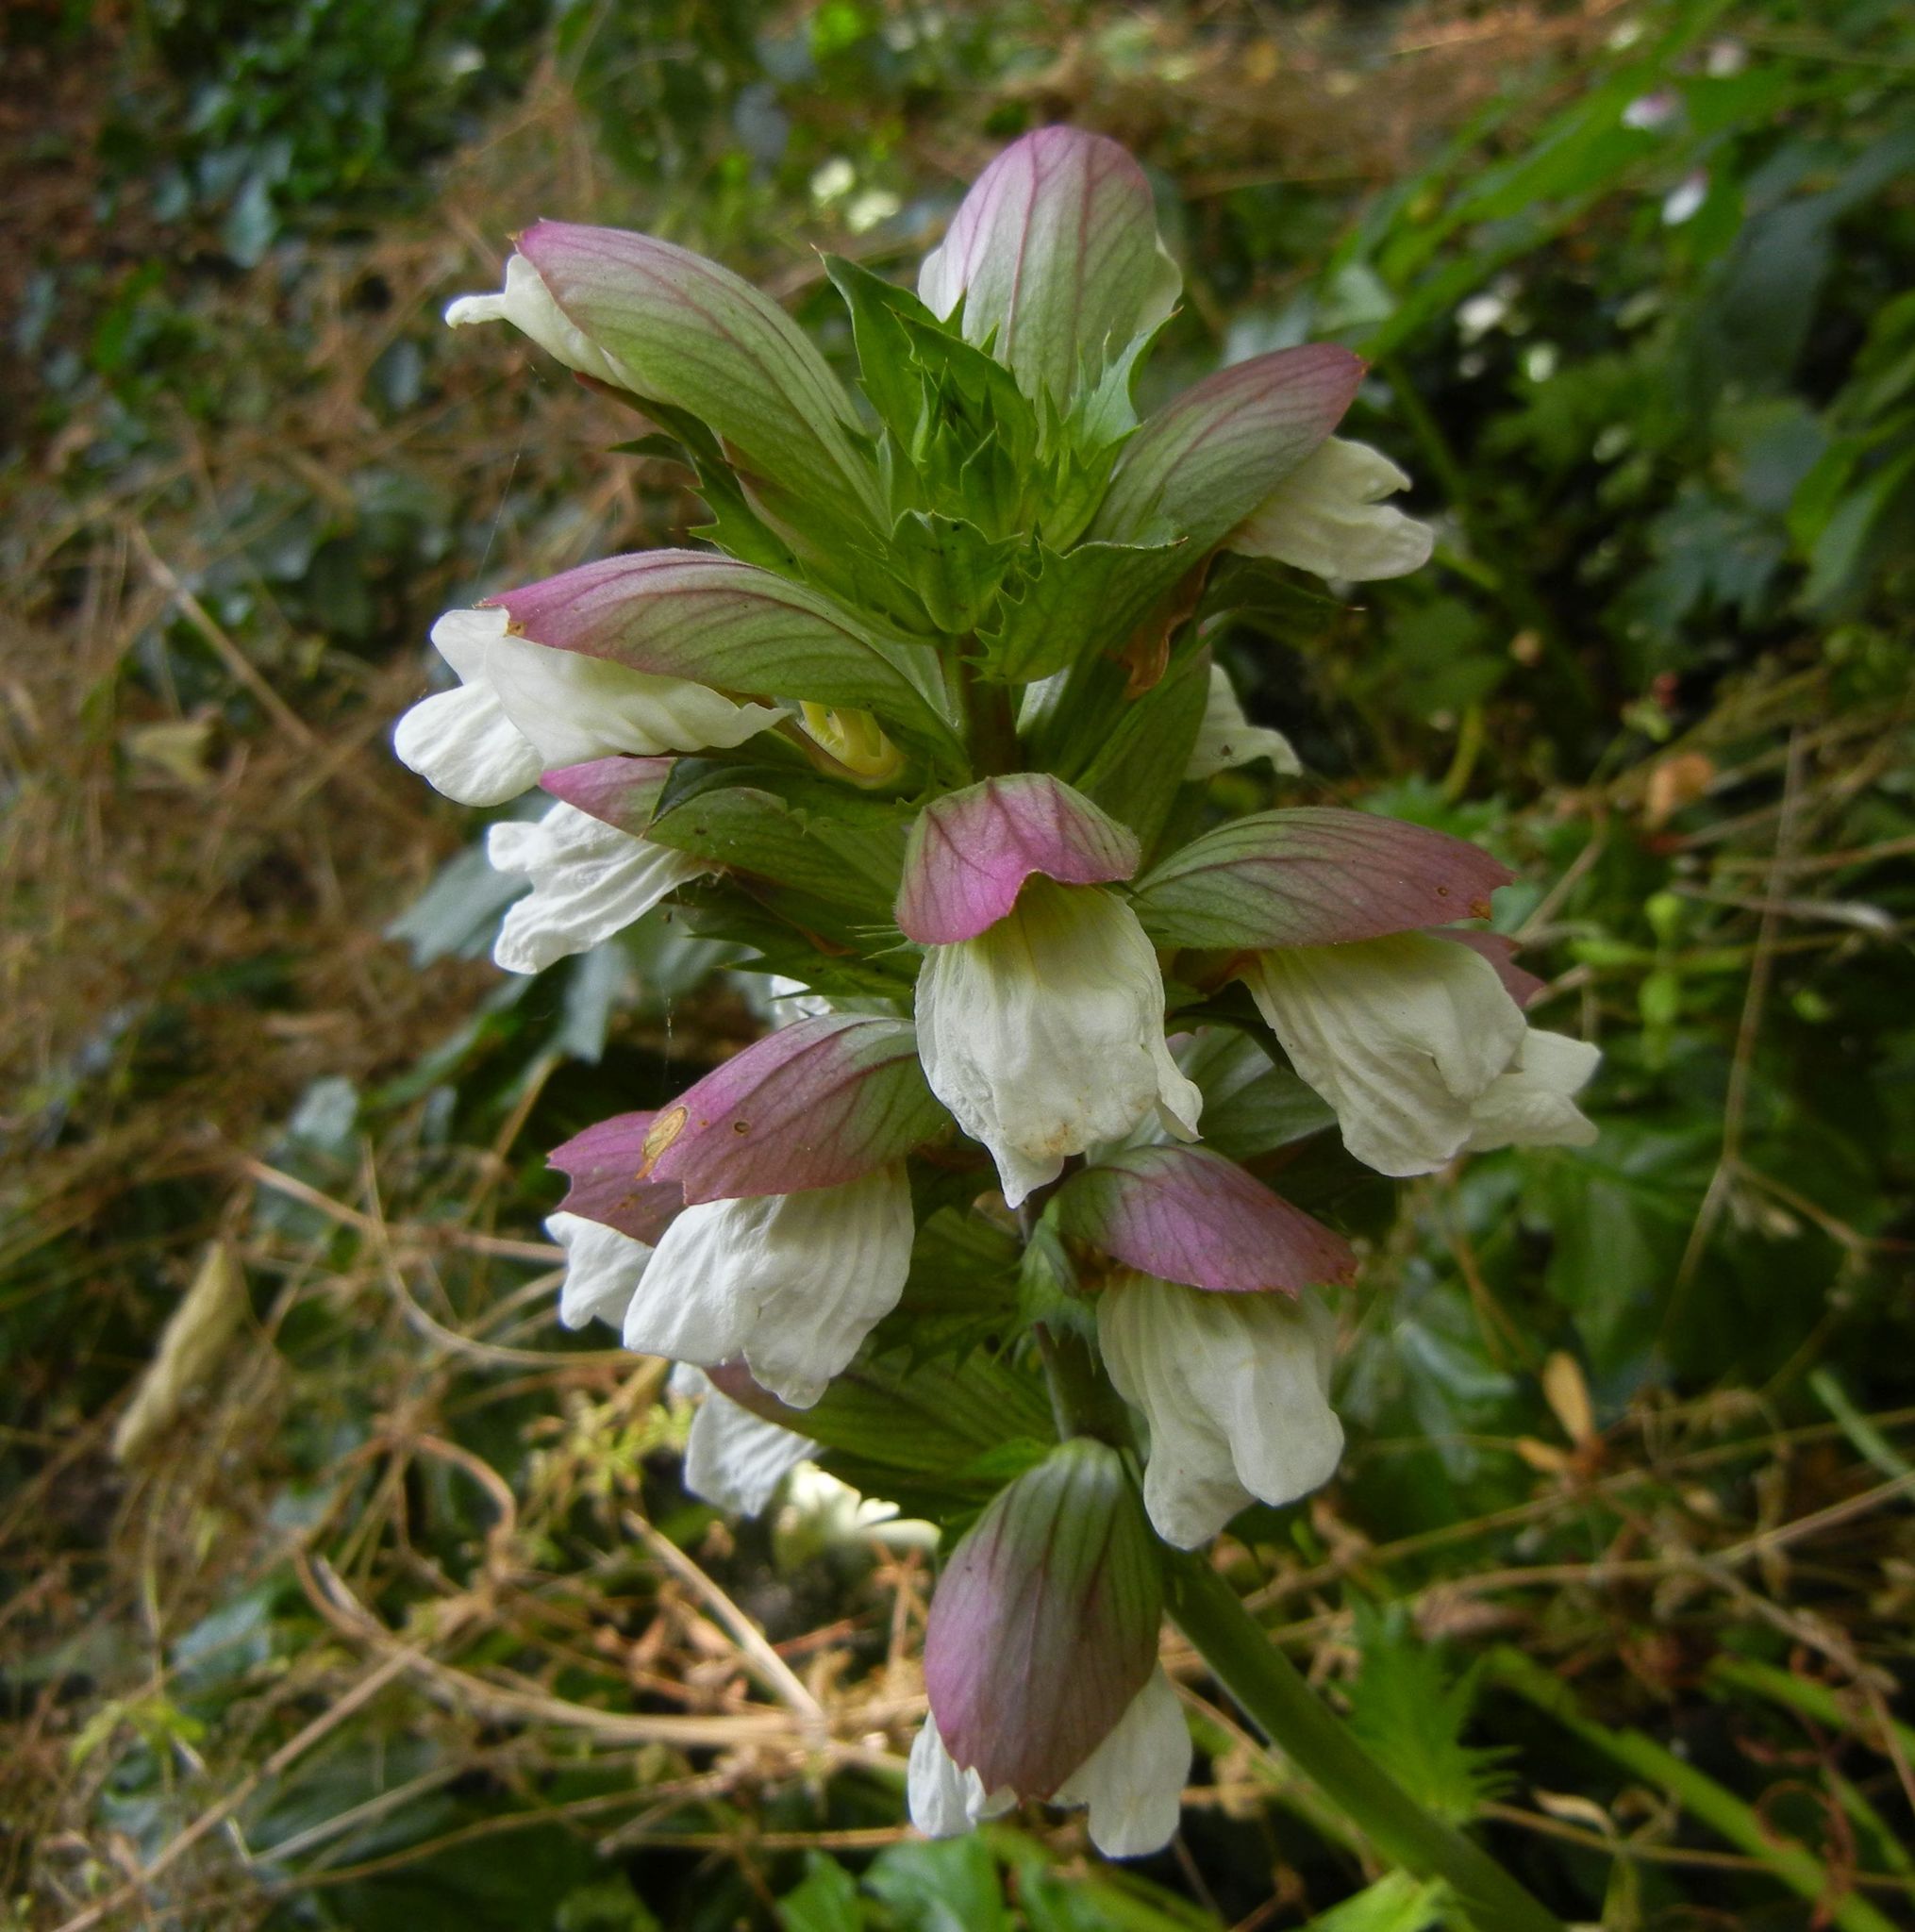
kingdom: Plantae
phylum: Tracheophyta
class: Magnoliopsida
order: Lamiales
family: Acanthaceae
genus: Acanthus
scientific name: Acanthus mollis
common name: Bear's-breech
